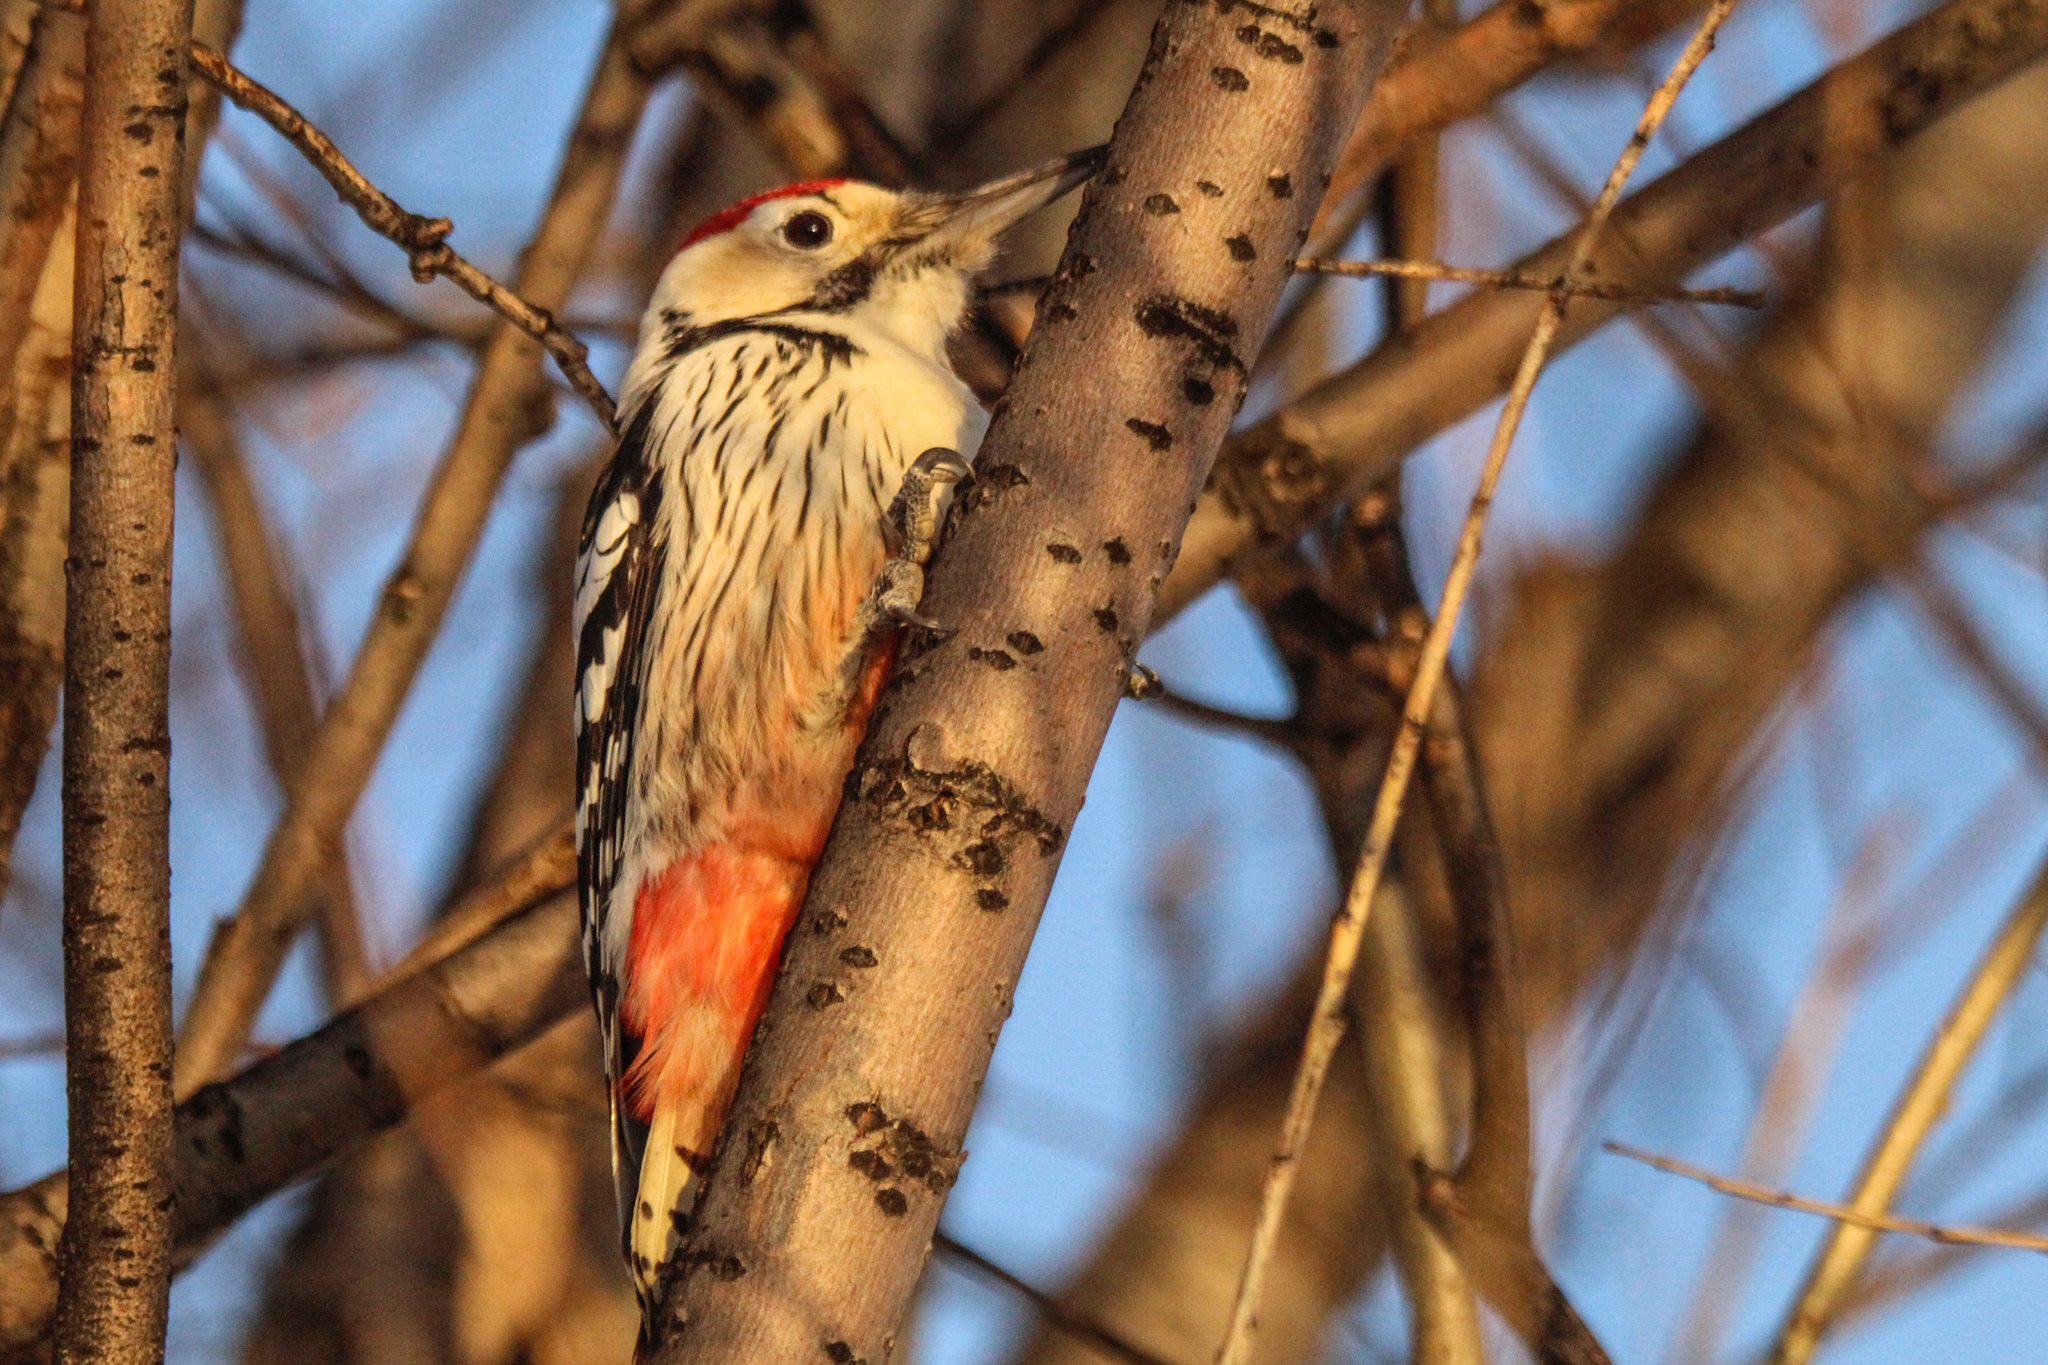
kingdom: Animalia
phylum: Chordata
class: Aves
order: Piciformes
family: Picidae
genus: Dendrocopos
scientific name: Dendrocopos leucotos
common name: White-backed woodpecker
